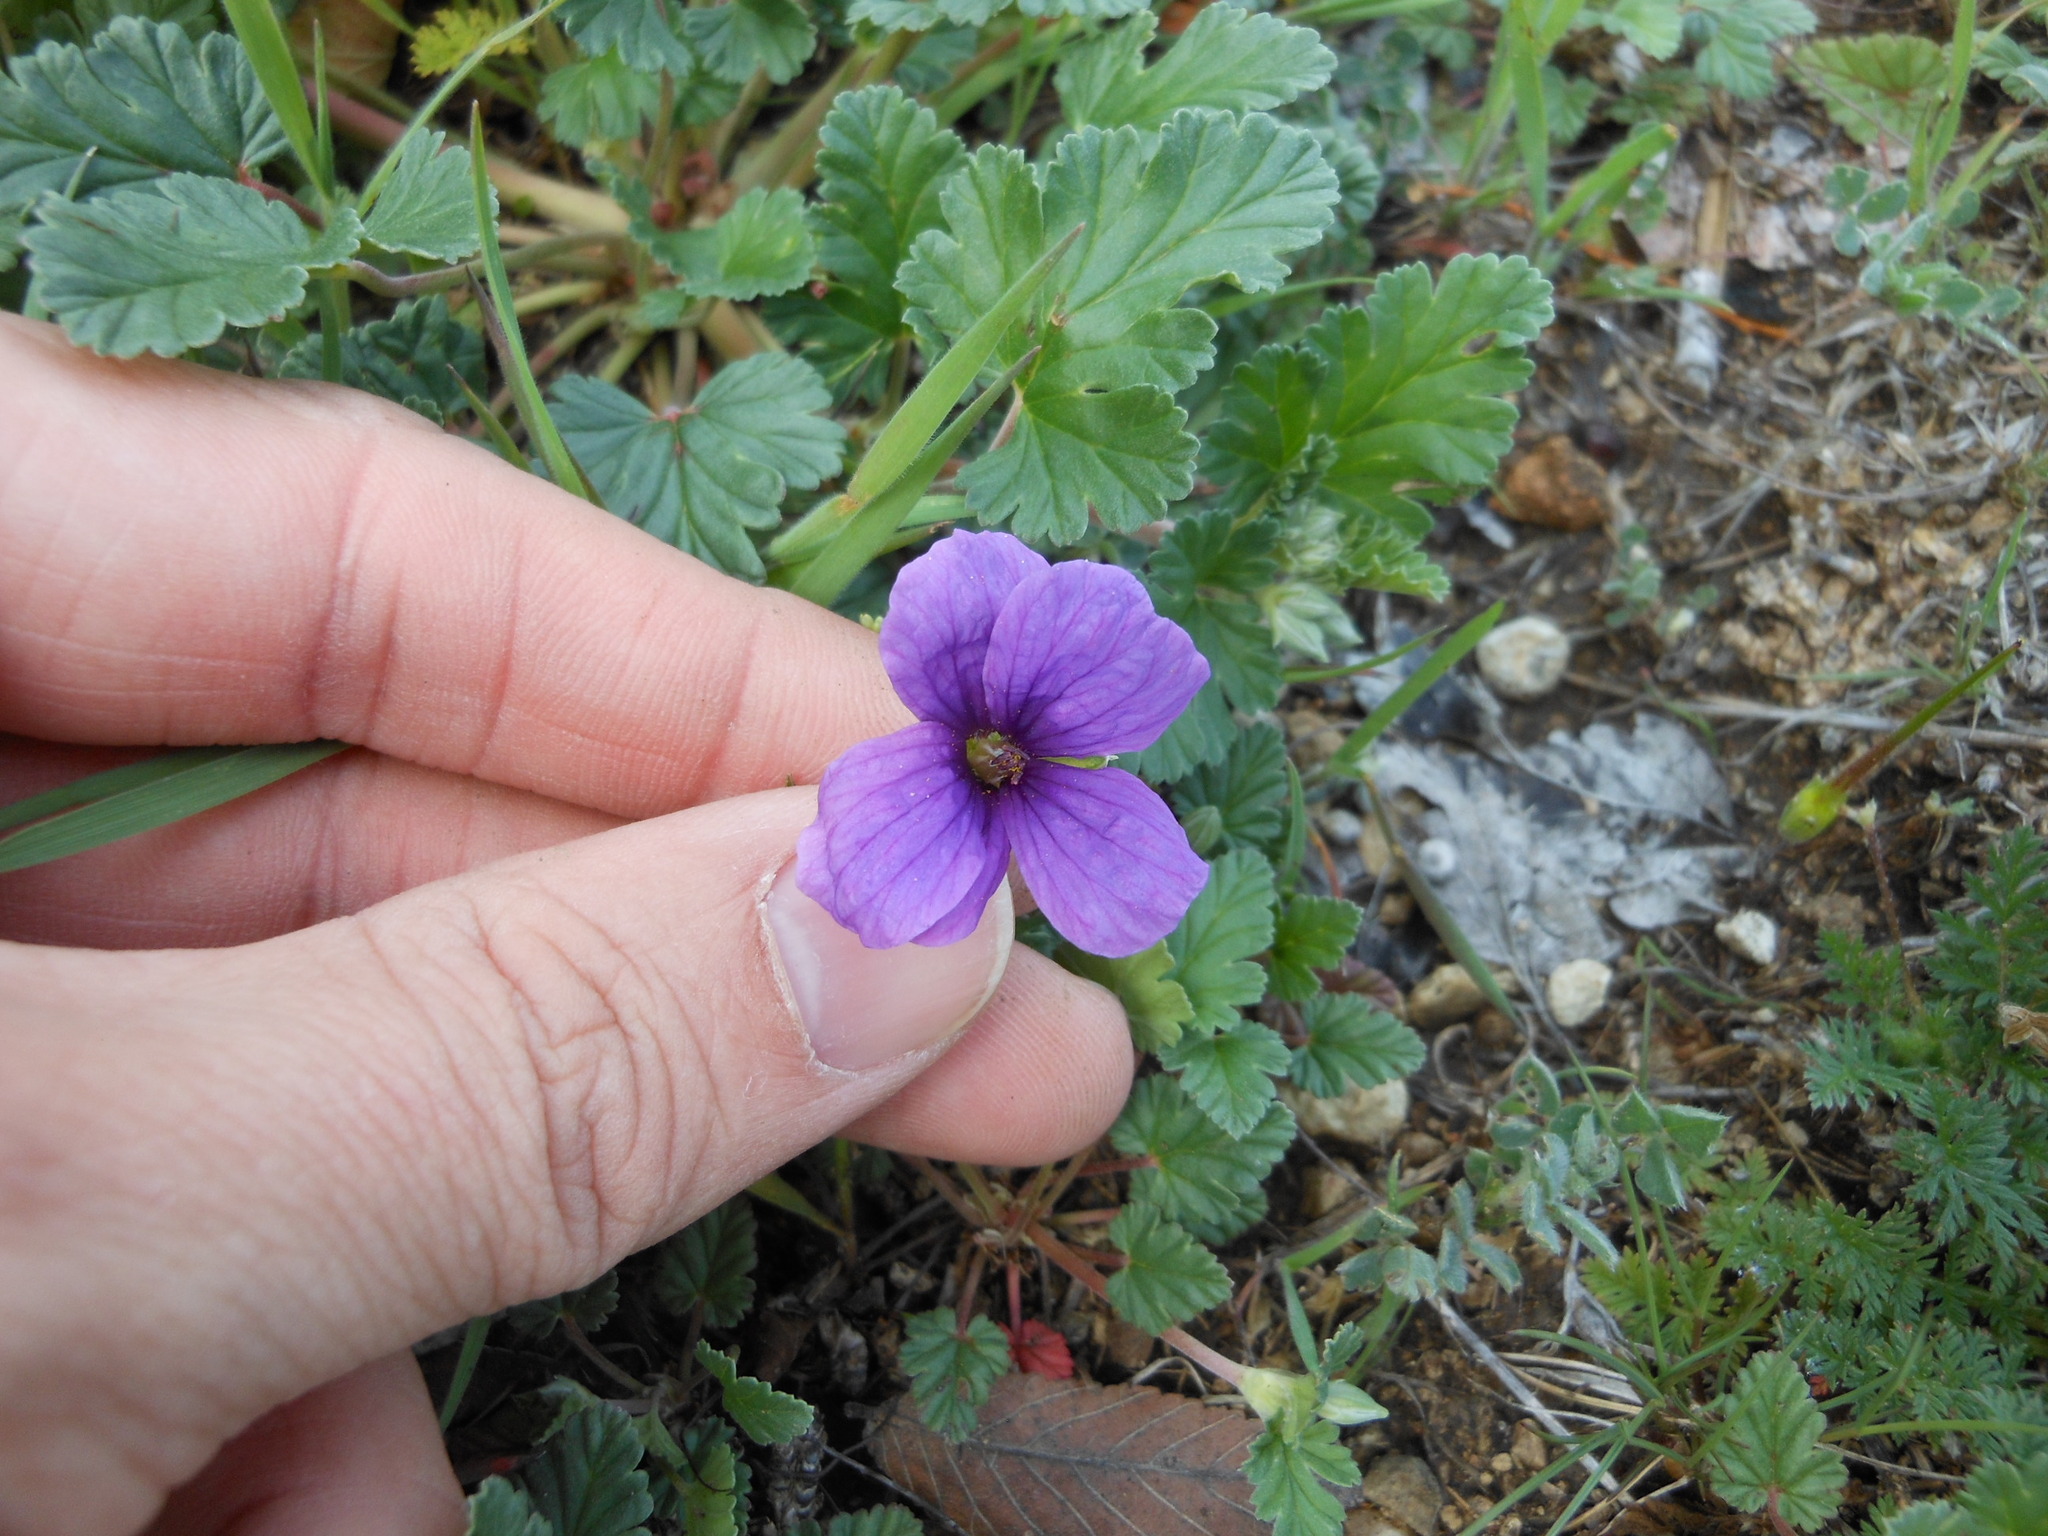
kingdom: Plantae
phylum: Tracheophyta
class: Magnoliopsida
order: Geraniales
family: Geraniaceae
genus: Erodium
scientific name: Erodium texanum
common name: Texas stork's-bill
